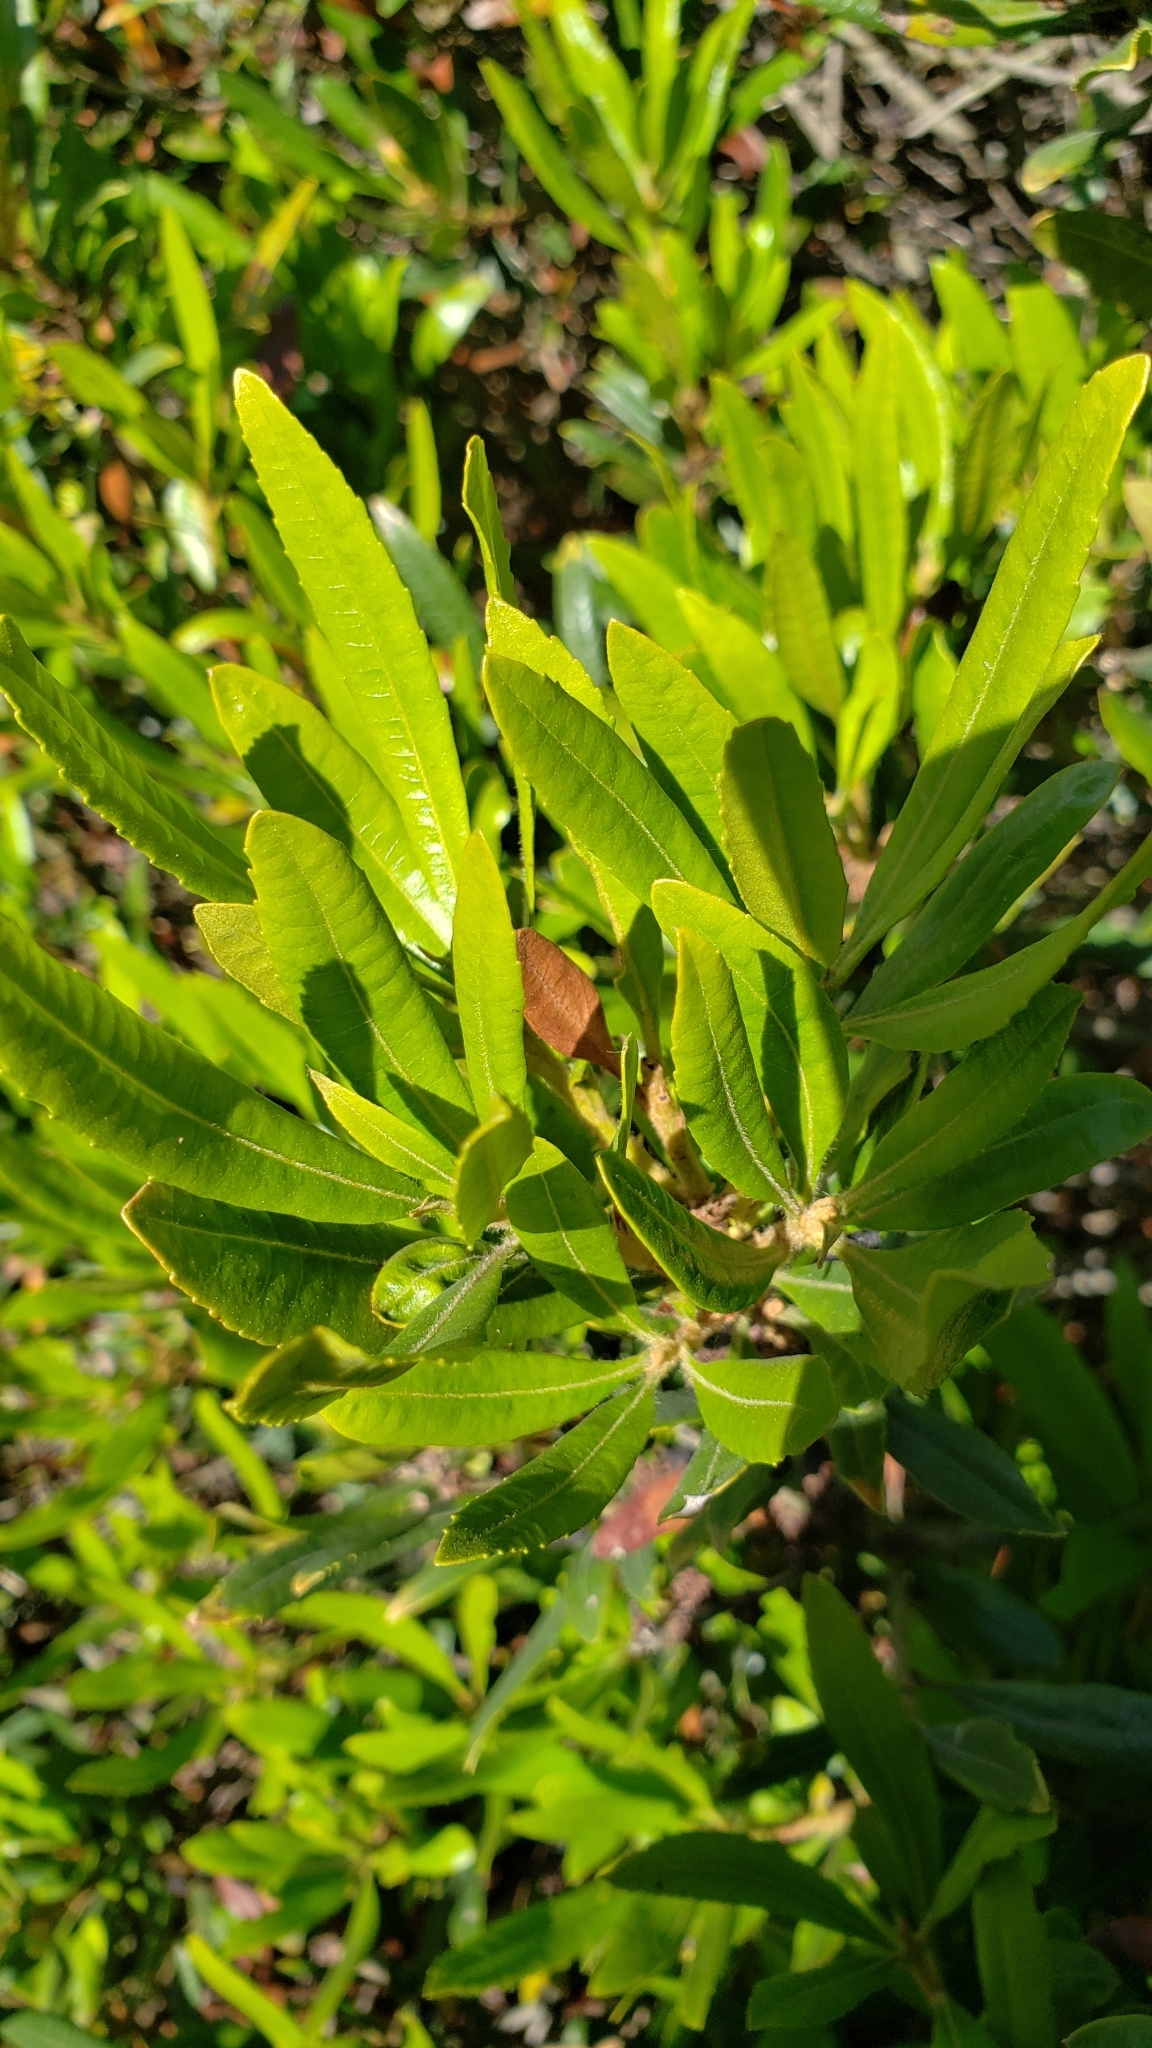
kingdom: Plantae
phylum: Tracheophyta
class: Magnoliopsida
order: Fagales
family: Myricaceae
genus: Morella
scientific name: Morella californica
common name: California wax-myrtle
